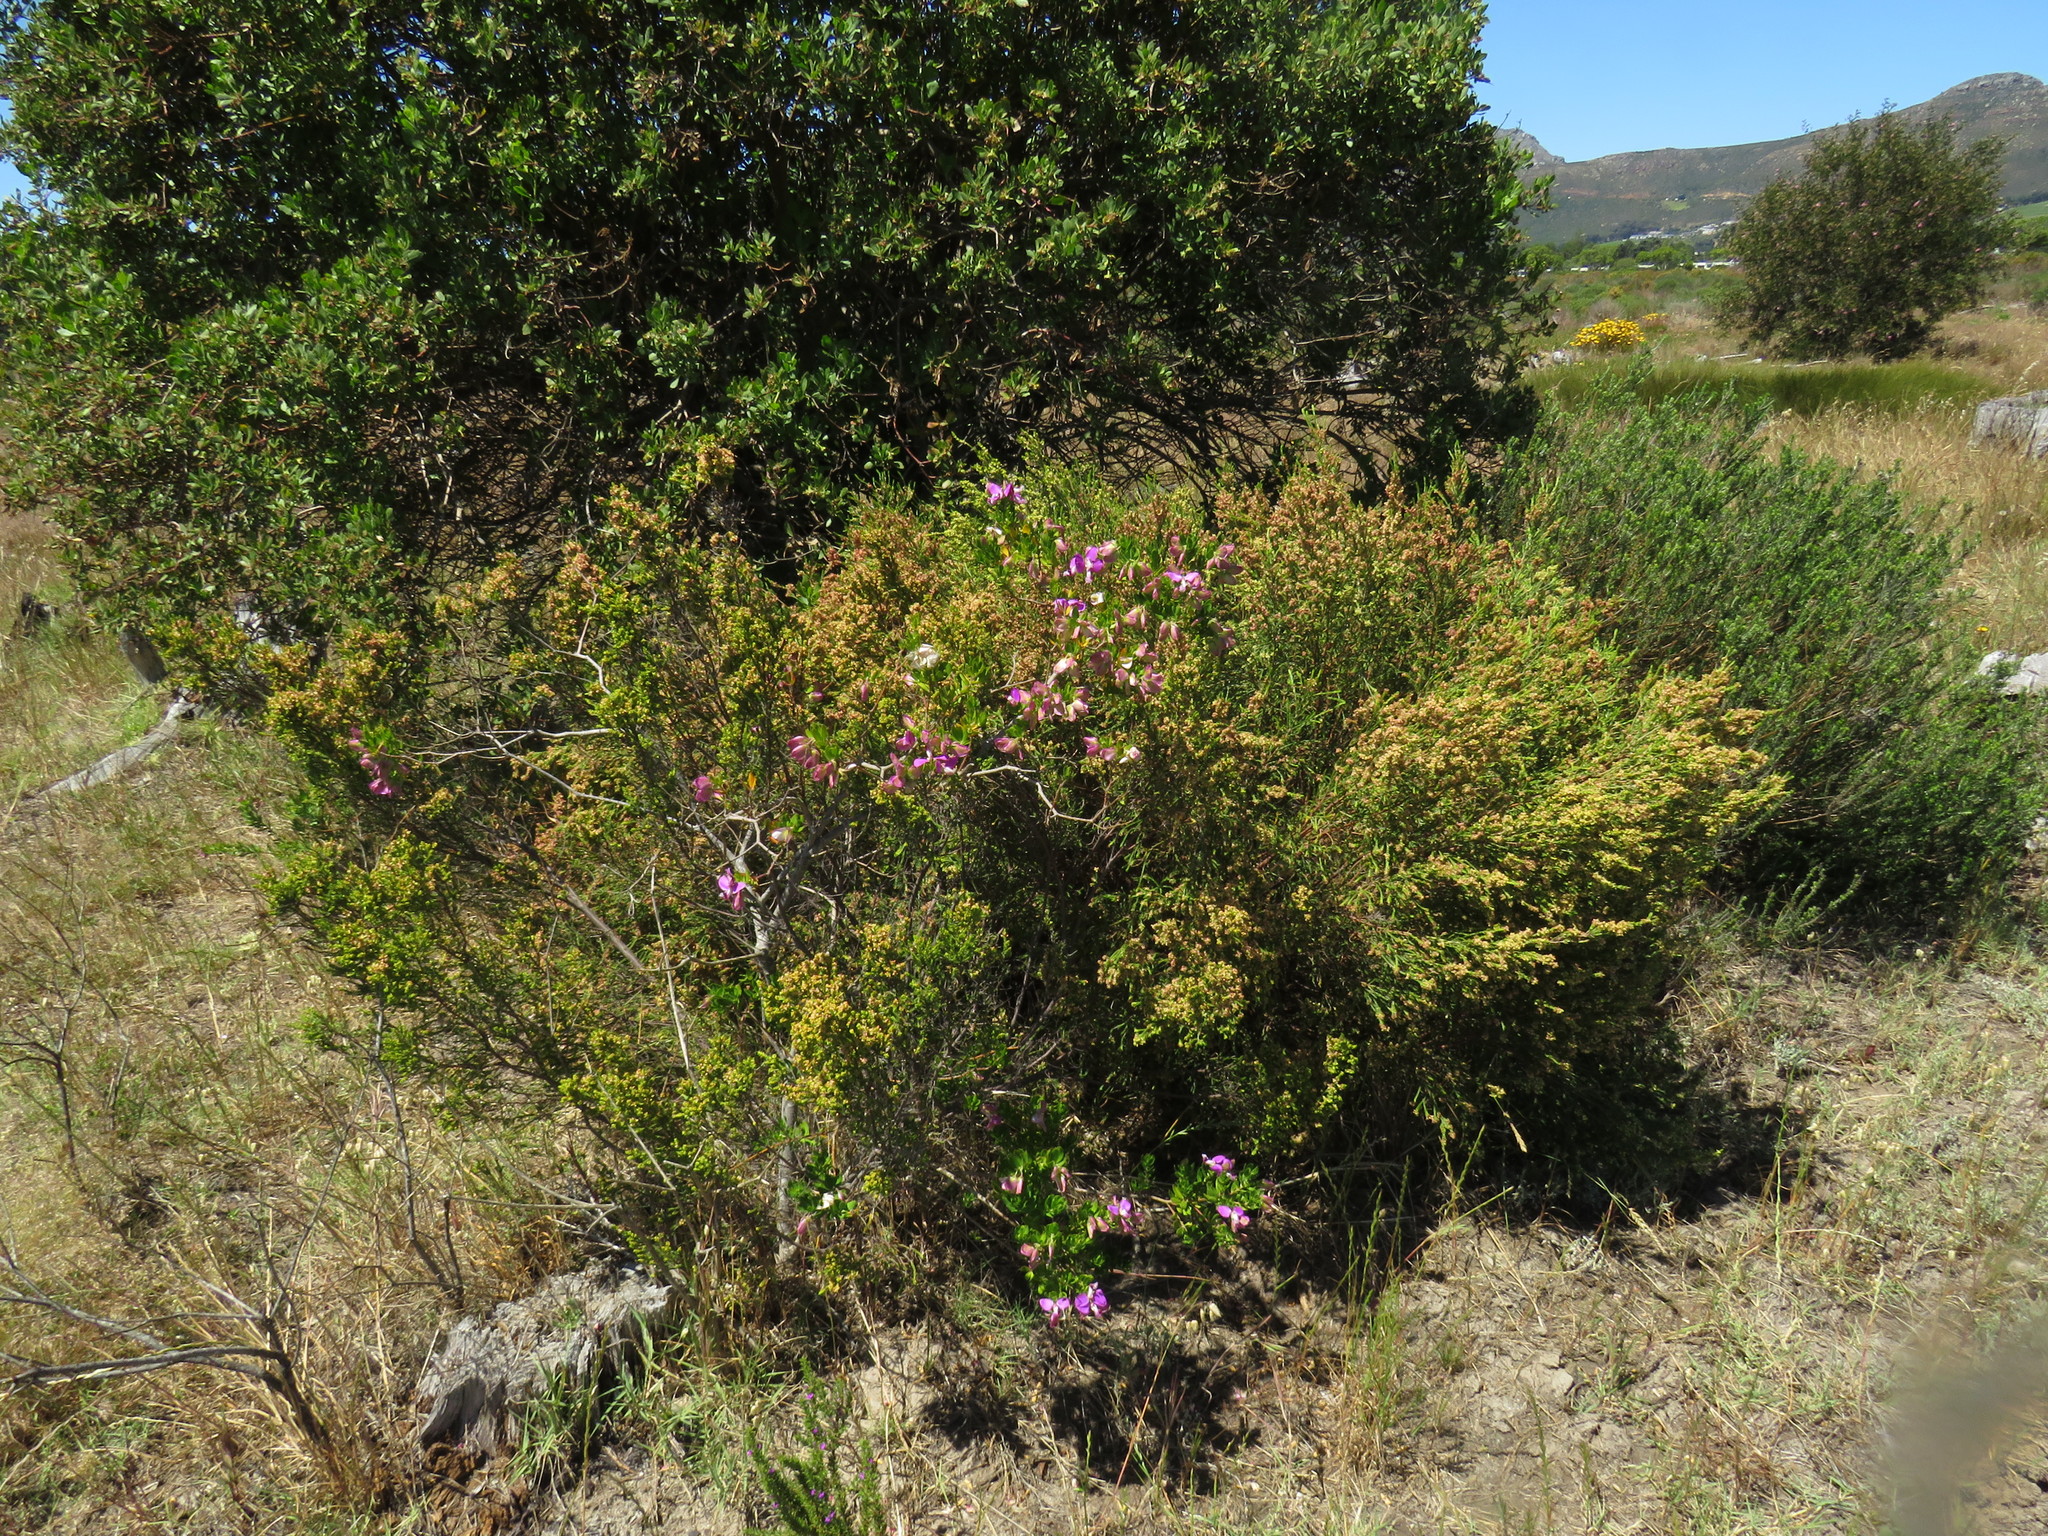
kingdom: Plantae
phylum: Tracheophyta
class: Magnoliopsida
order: Fabales
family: Polygalaceae
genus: Polygala
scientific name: Polygala myrtifolia
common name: Myrtle-leaf milkwort
